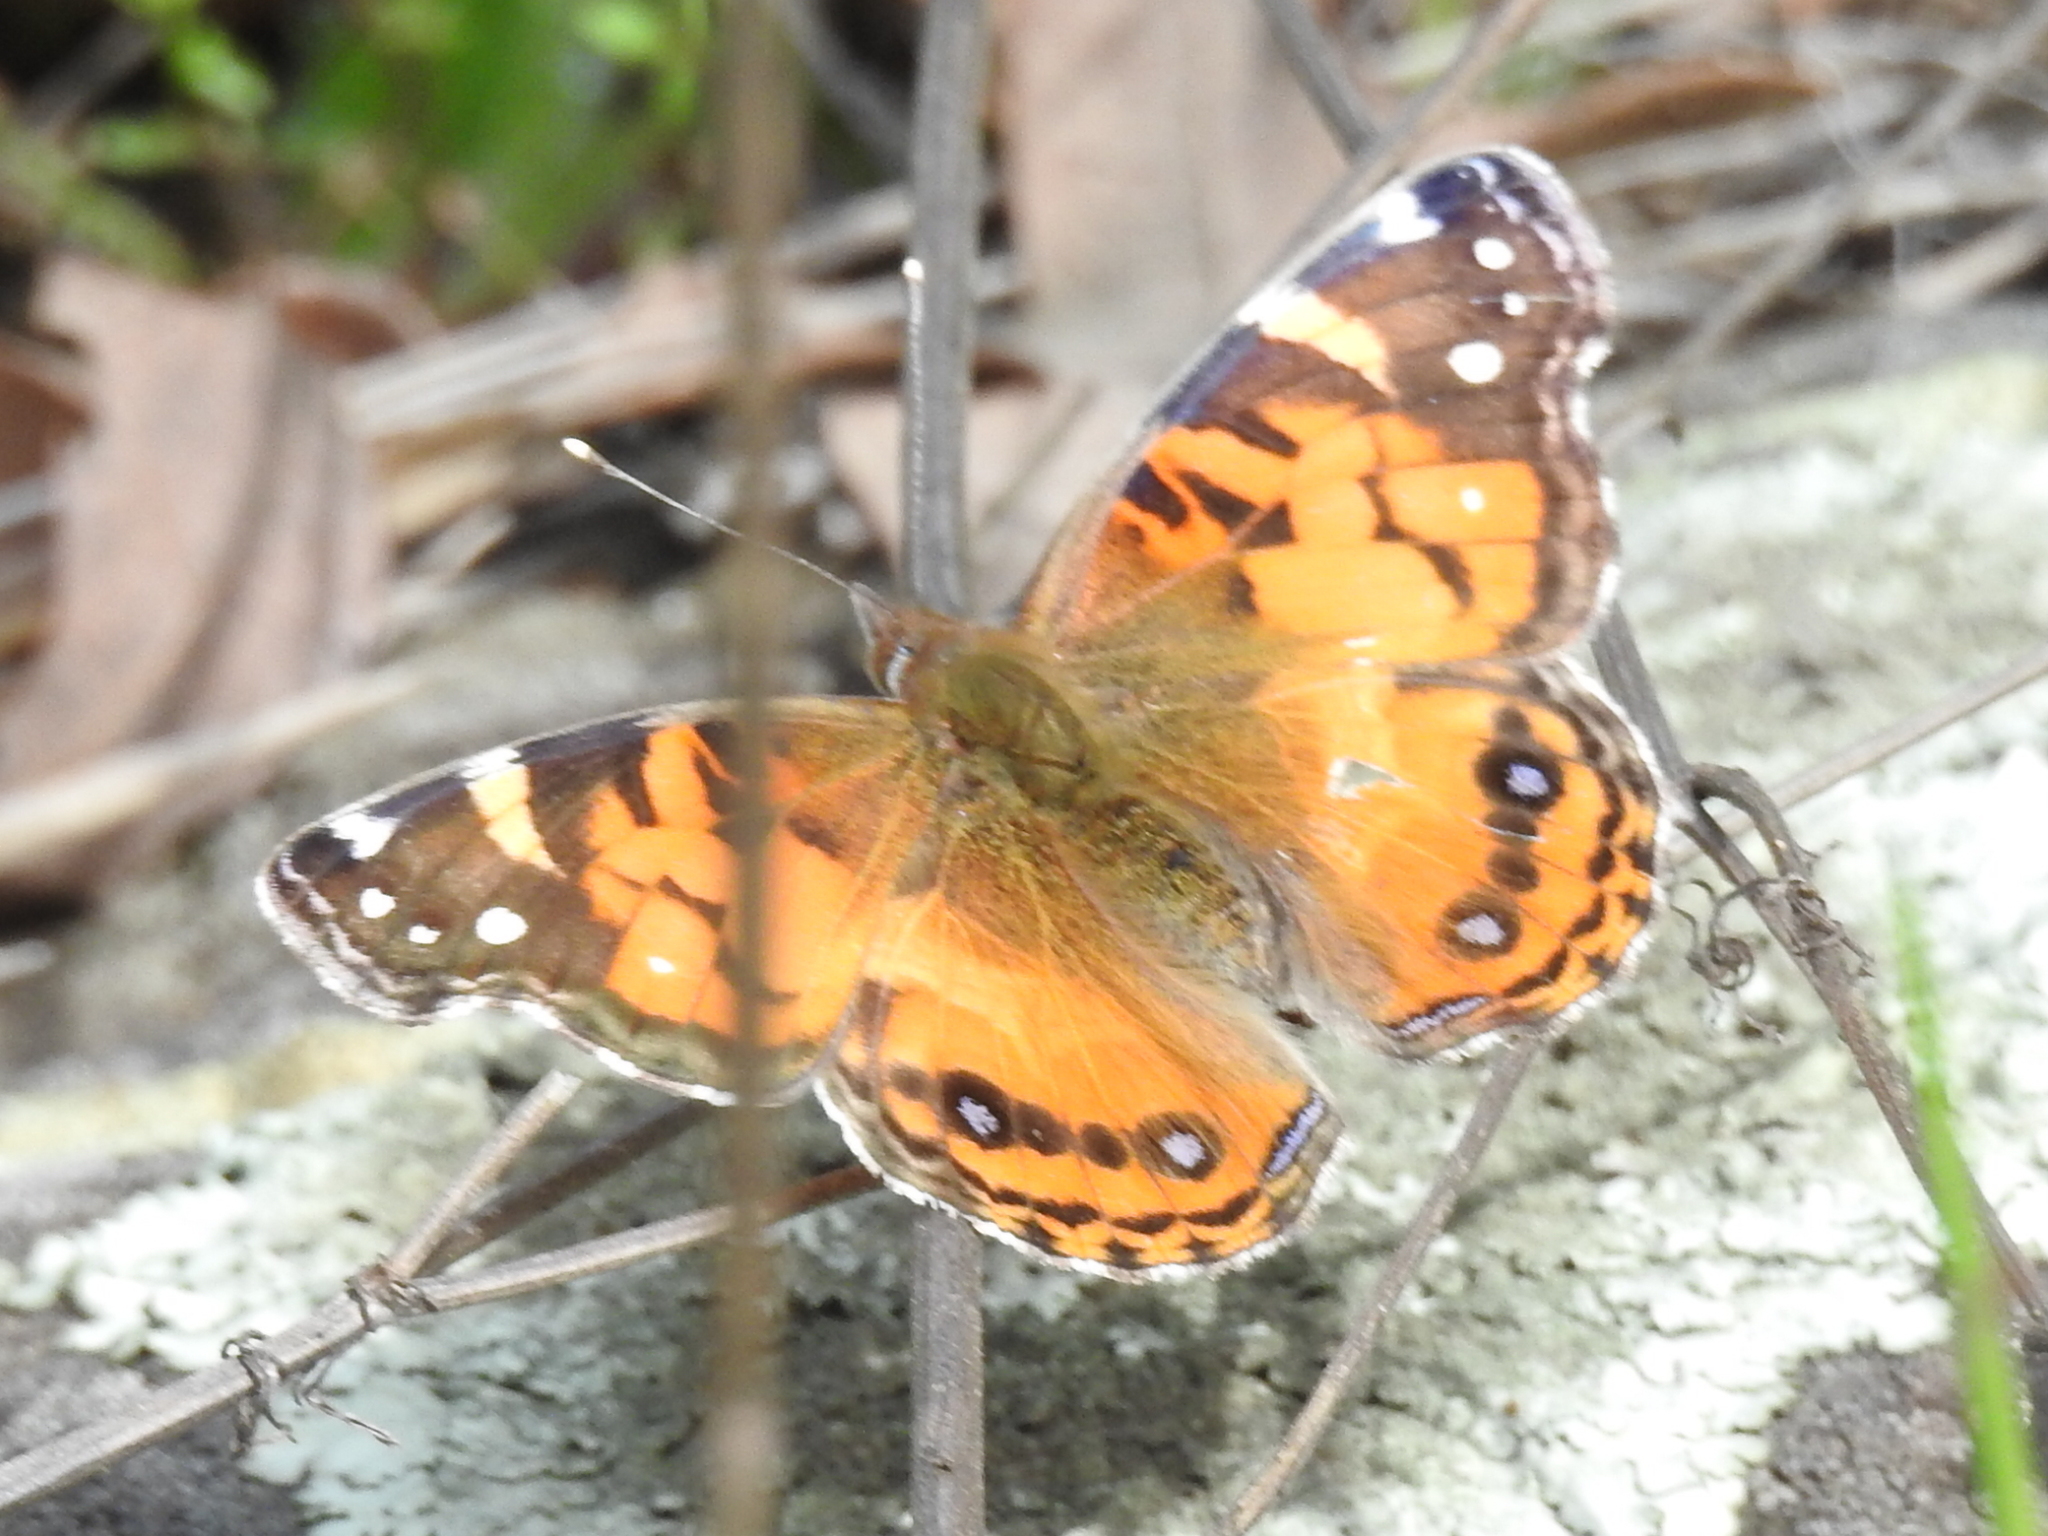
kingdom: Animalia
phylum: Arthropoda
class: Insecta
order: Lepidoptera
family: Nymphalidae
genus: Vanessa
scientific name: Vanessa virginiensis
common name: American lady
